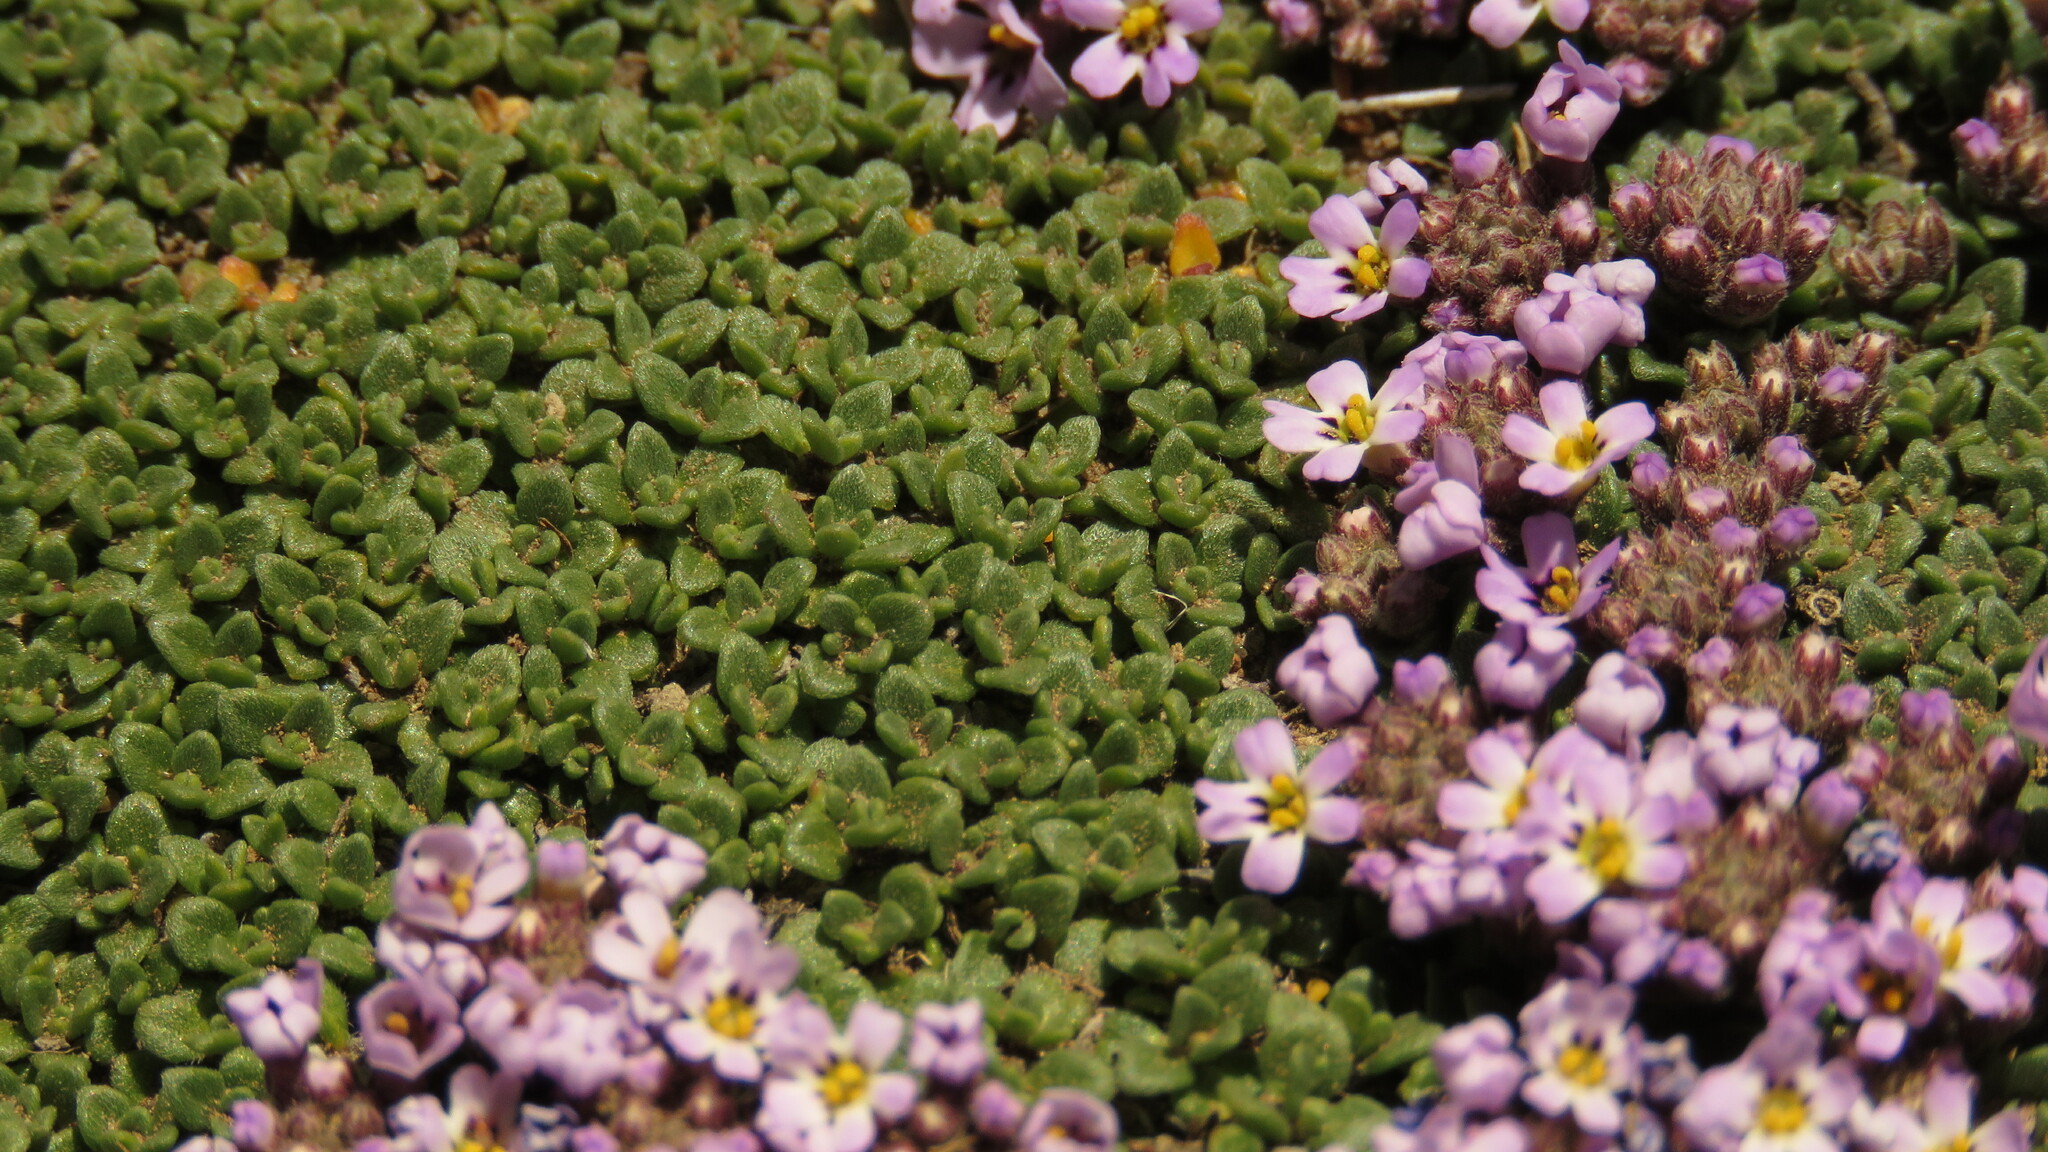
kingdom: Plantae
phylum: Tracheophyta
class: Magnoliopsida
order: Lamiales
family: Verbenaceae
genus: Junellia
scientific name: Junellia micrantha
